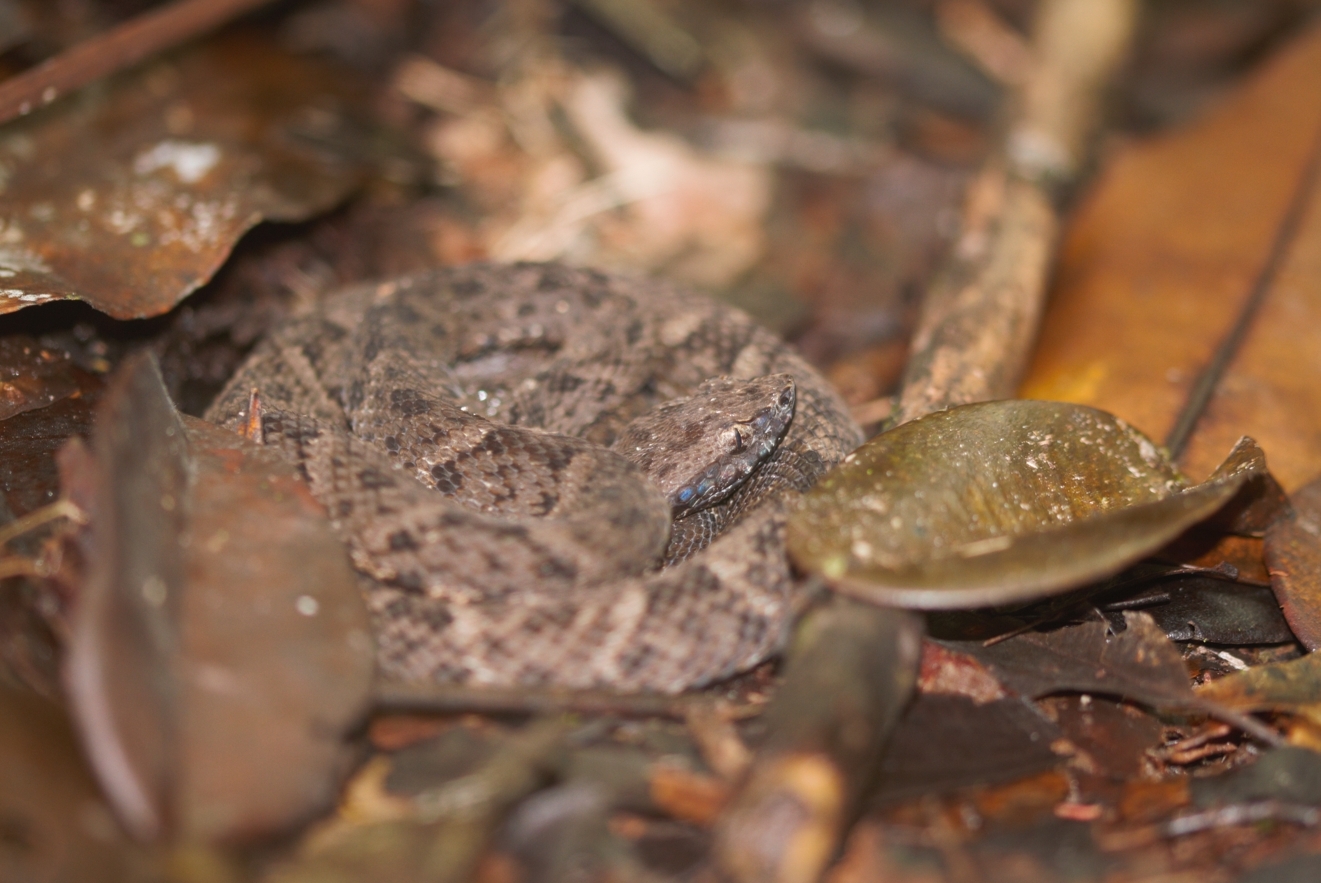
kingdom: Animalia
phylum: Chordata
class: Squamata
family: Viperidae
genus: Bothrops
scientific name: Bothrops atrox
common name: Common lancehead
